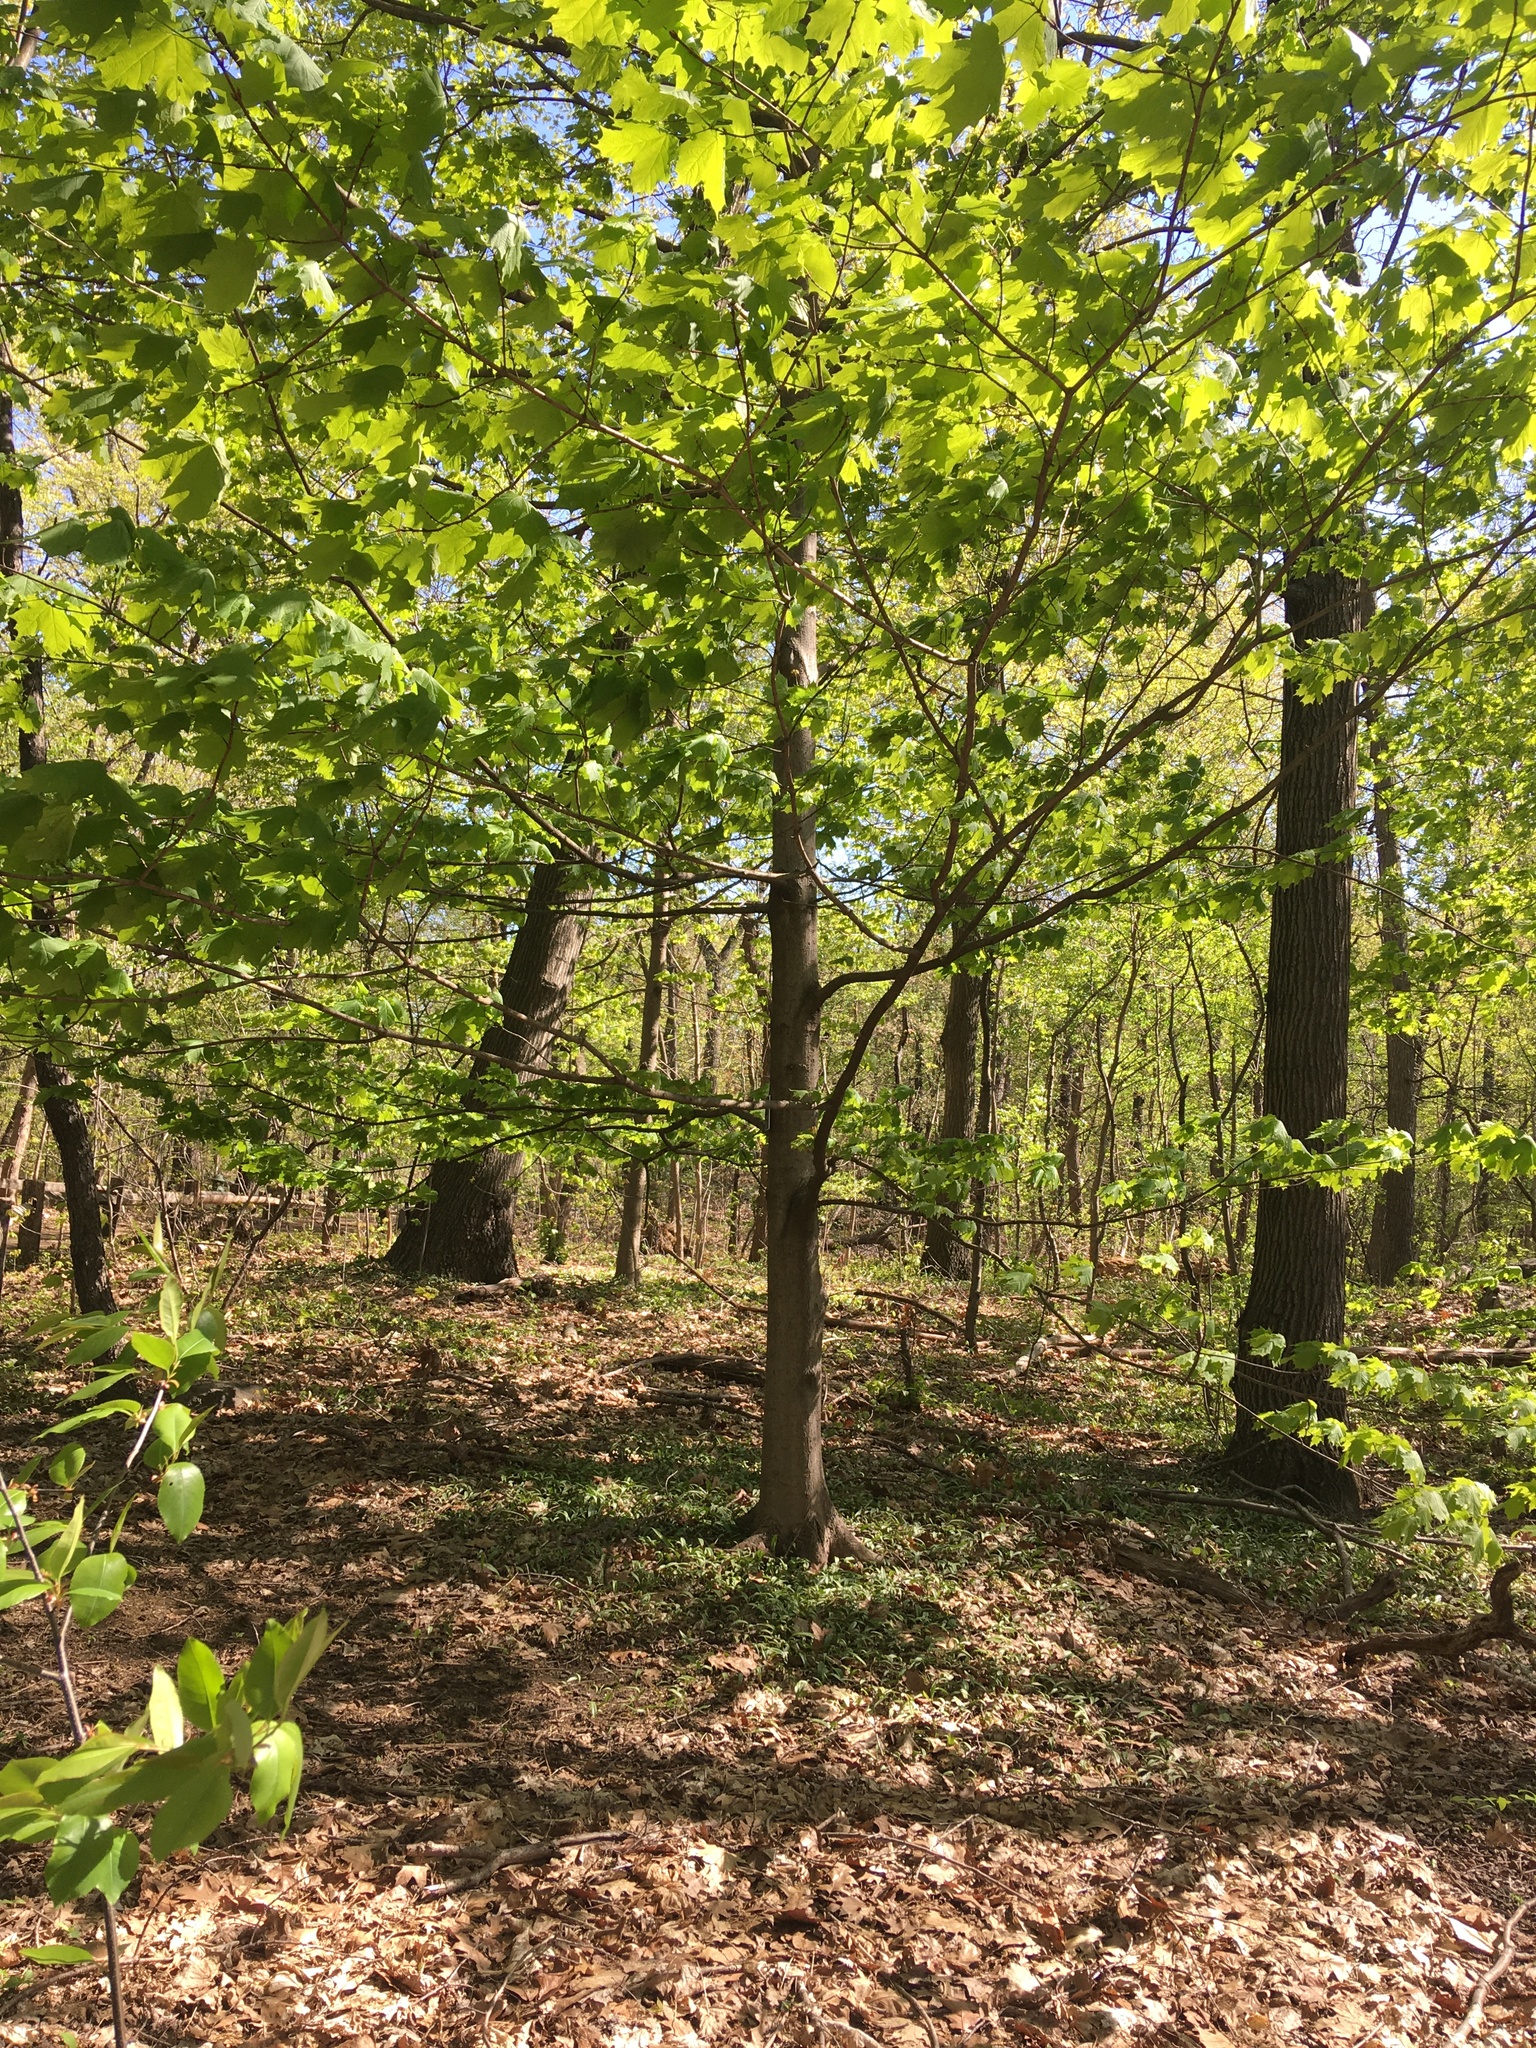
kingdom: Plantae
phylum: Tracheophyta
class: Magnoliopsida
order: Sapindales
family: Sapindaceae
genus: Acer
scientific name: Acer saccharum
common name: Sugar maple
